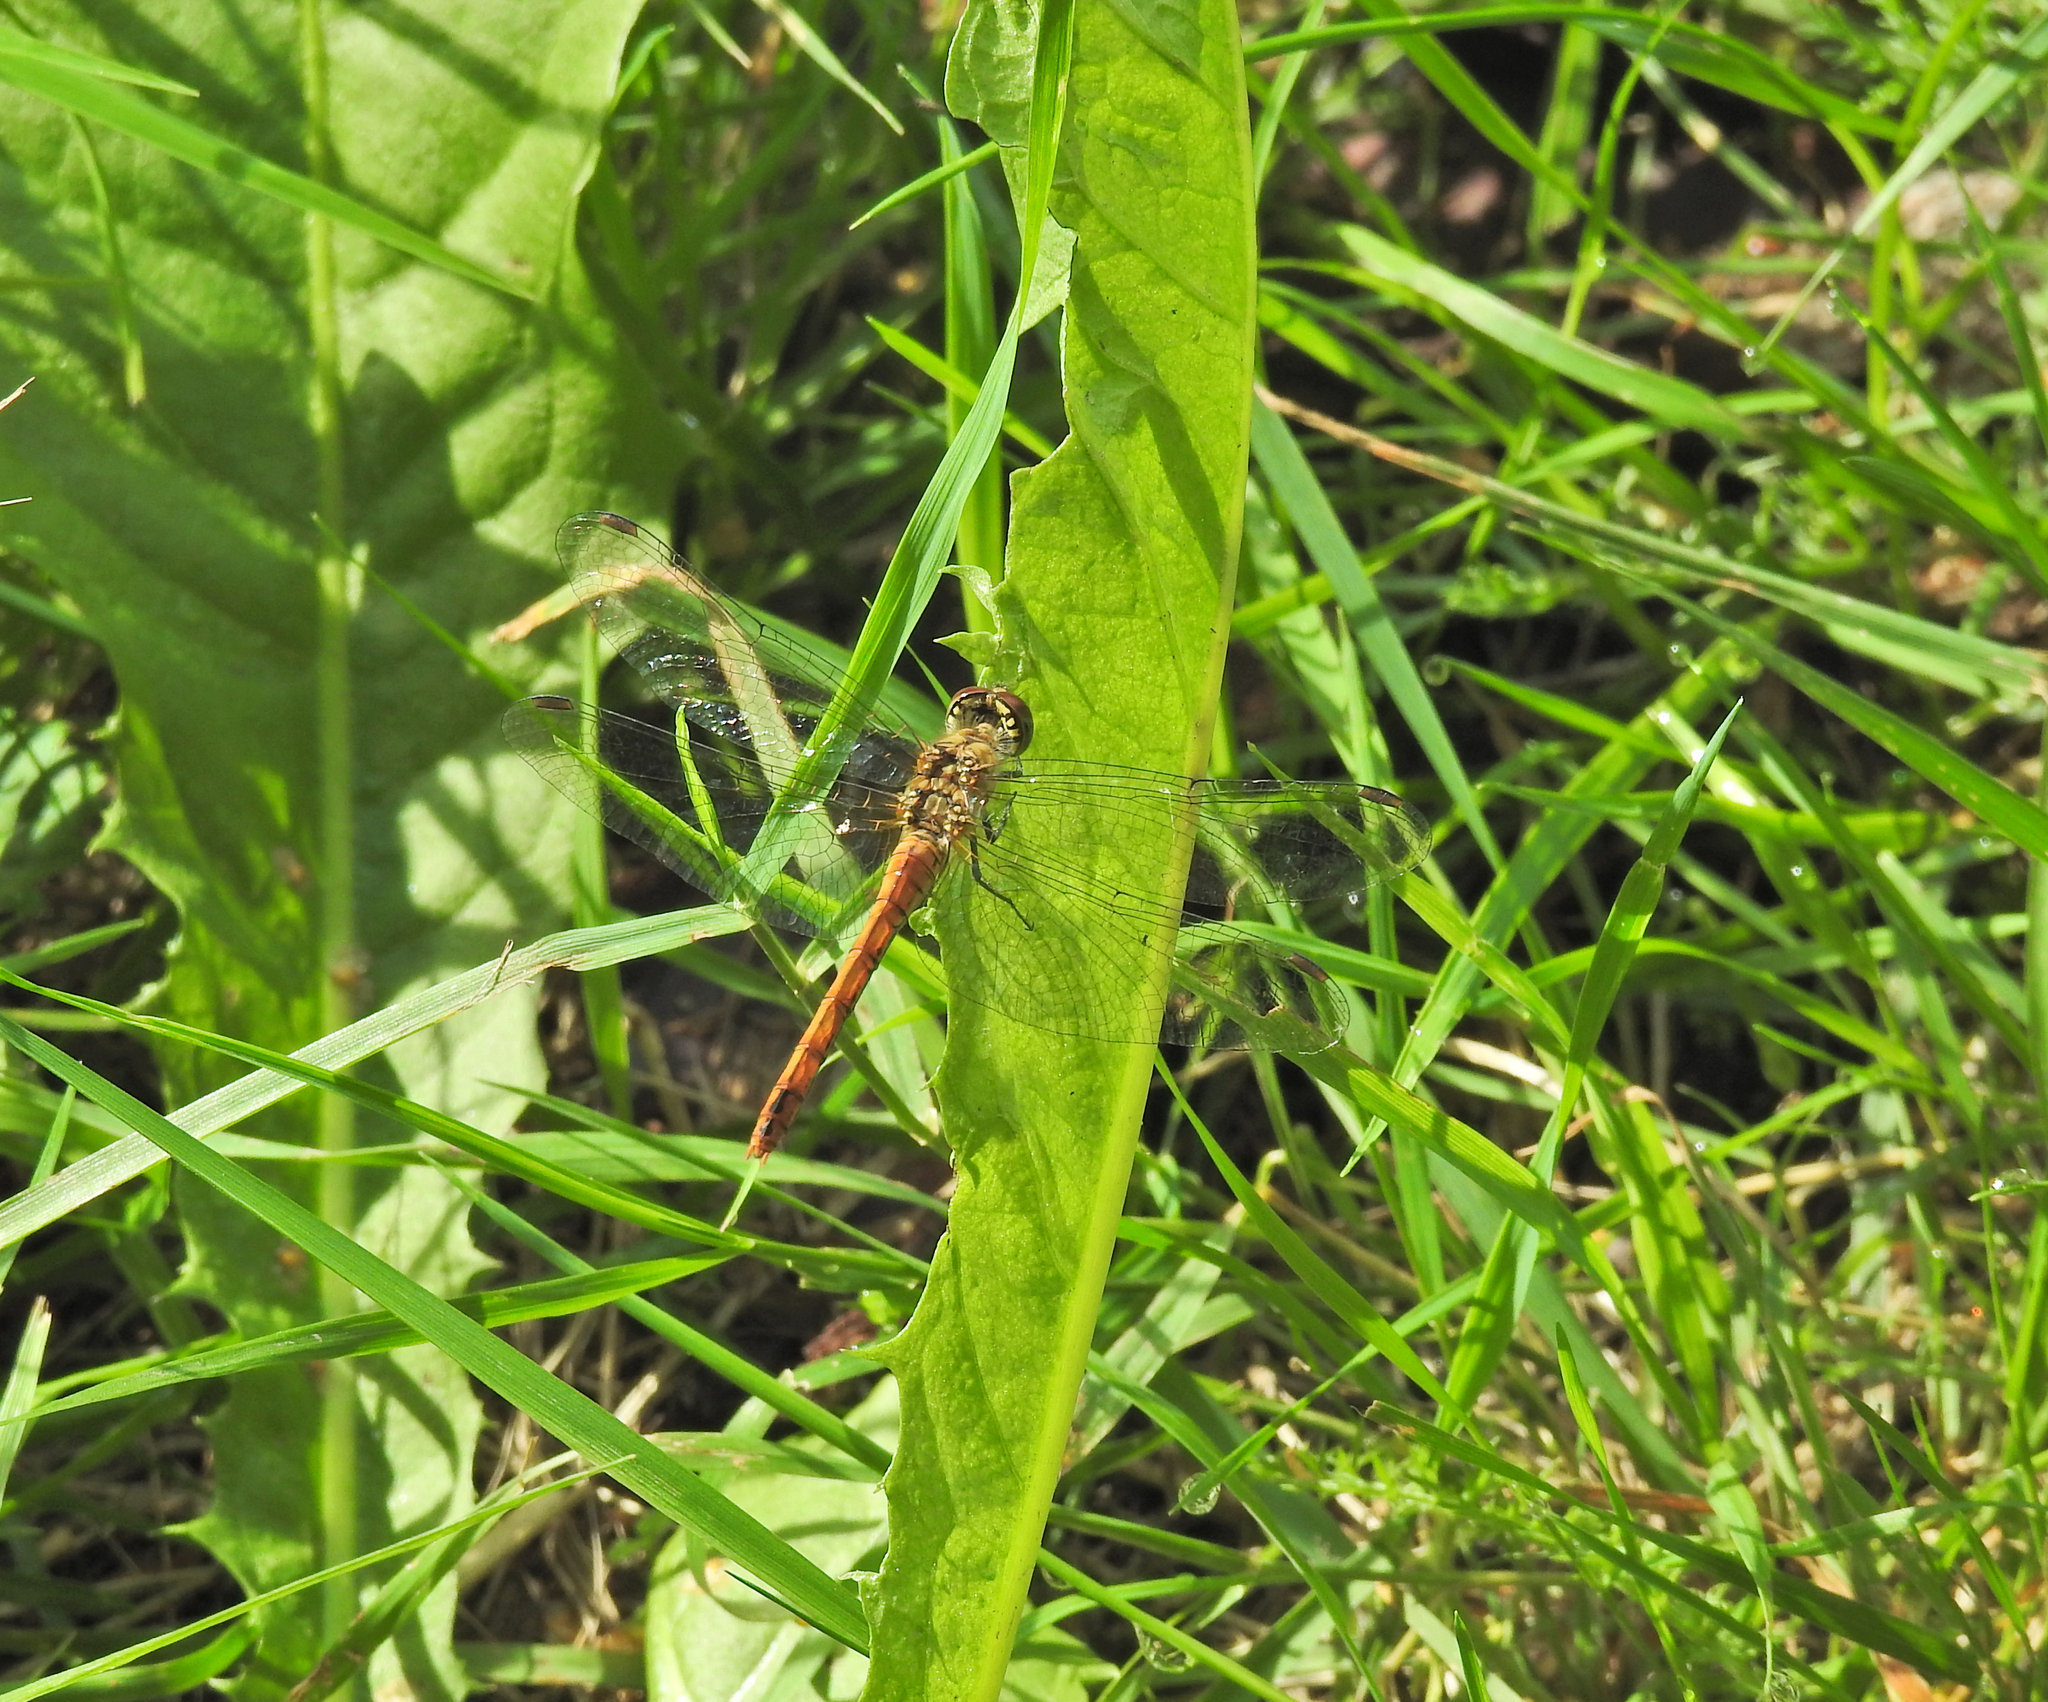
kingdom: Animalia
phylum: Arthropoda
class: Insecta
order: Odonata
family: Libellulidae
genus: Sympetrum
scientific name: Sympetrum sanguineum
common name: Ruddy darter
